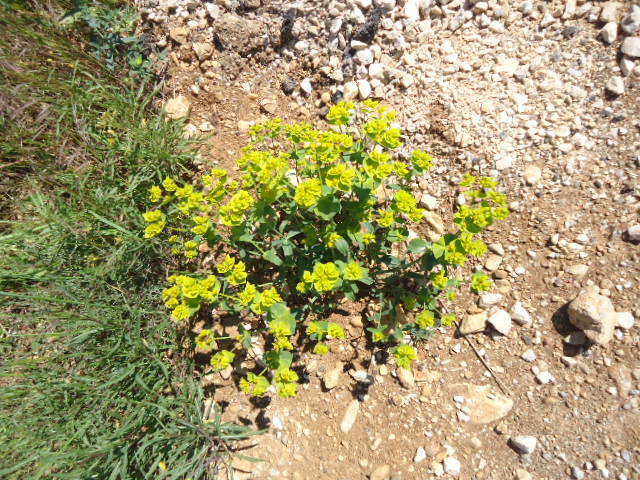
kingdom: Plantae
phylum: Tracheophyta
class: Magnoliopsida
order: Malpighiales
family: Euphorbiaceae
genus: Euphorbia
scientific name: Euphorbia serrata
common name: Serrate spurge
